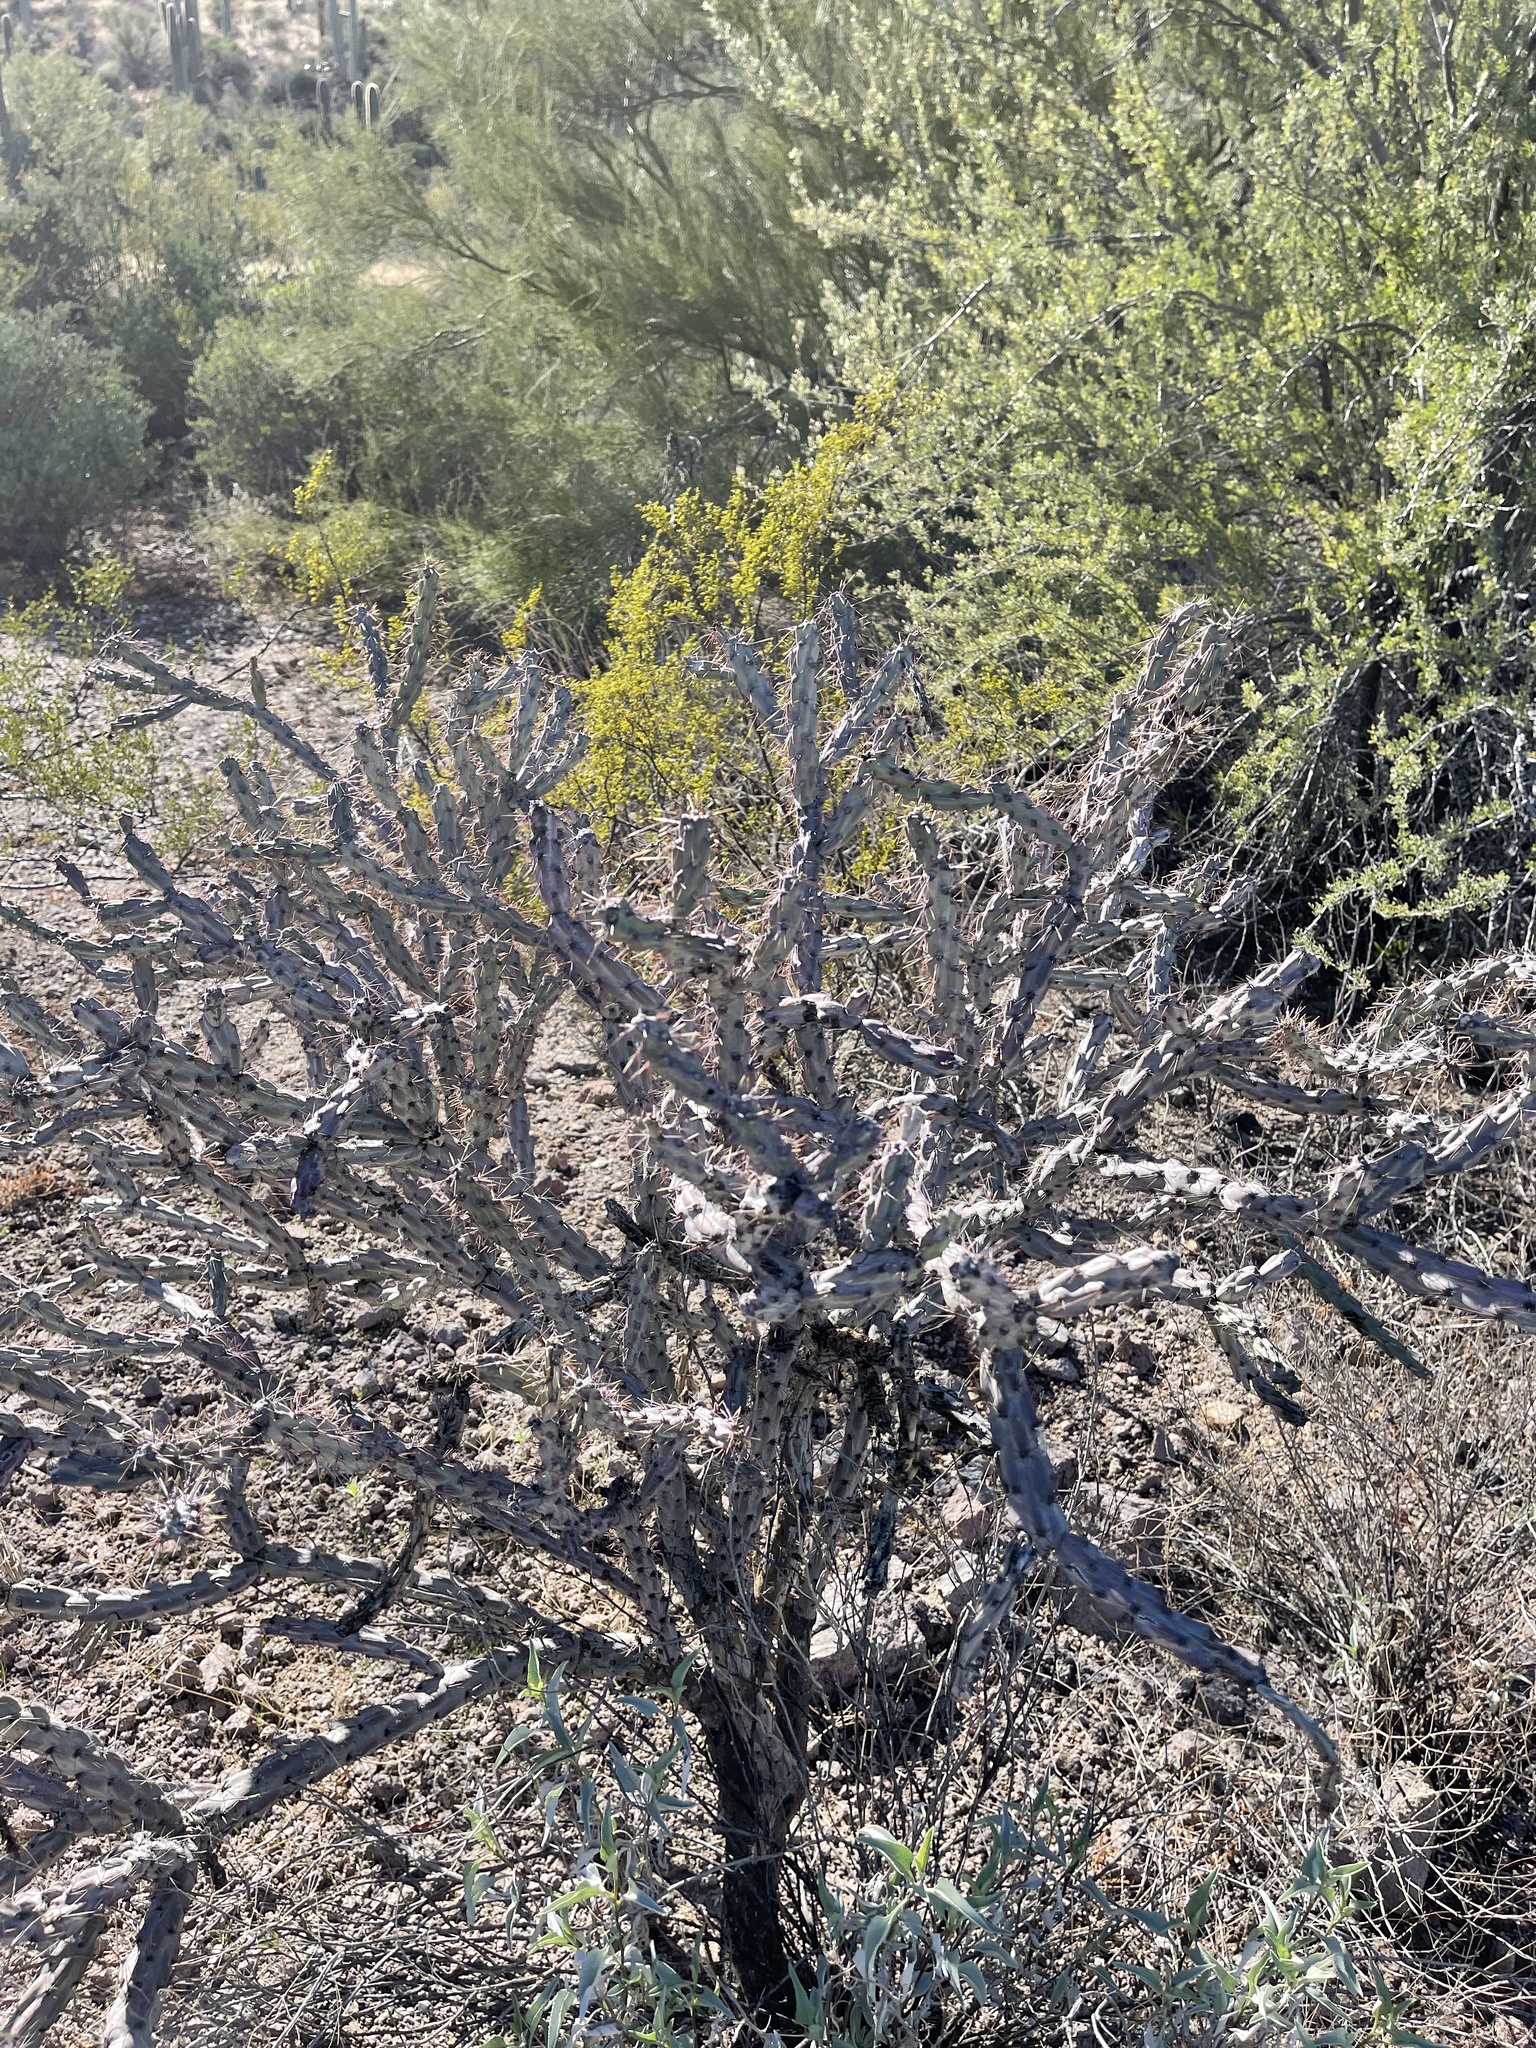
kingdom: Plantae
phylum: Tracheophyta
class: Magnoliopsida
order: Caryophyllales
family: Cactaceae
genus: Cylindropuntia
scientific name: Cylindropuntia thurberi
